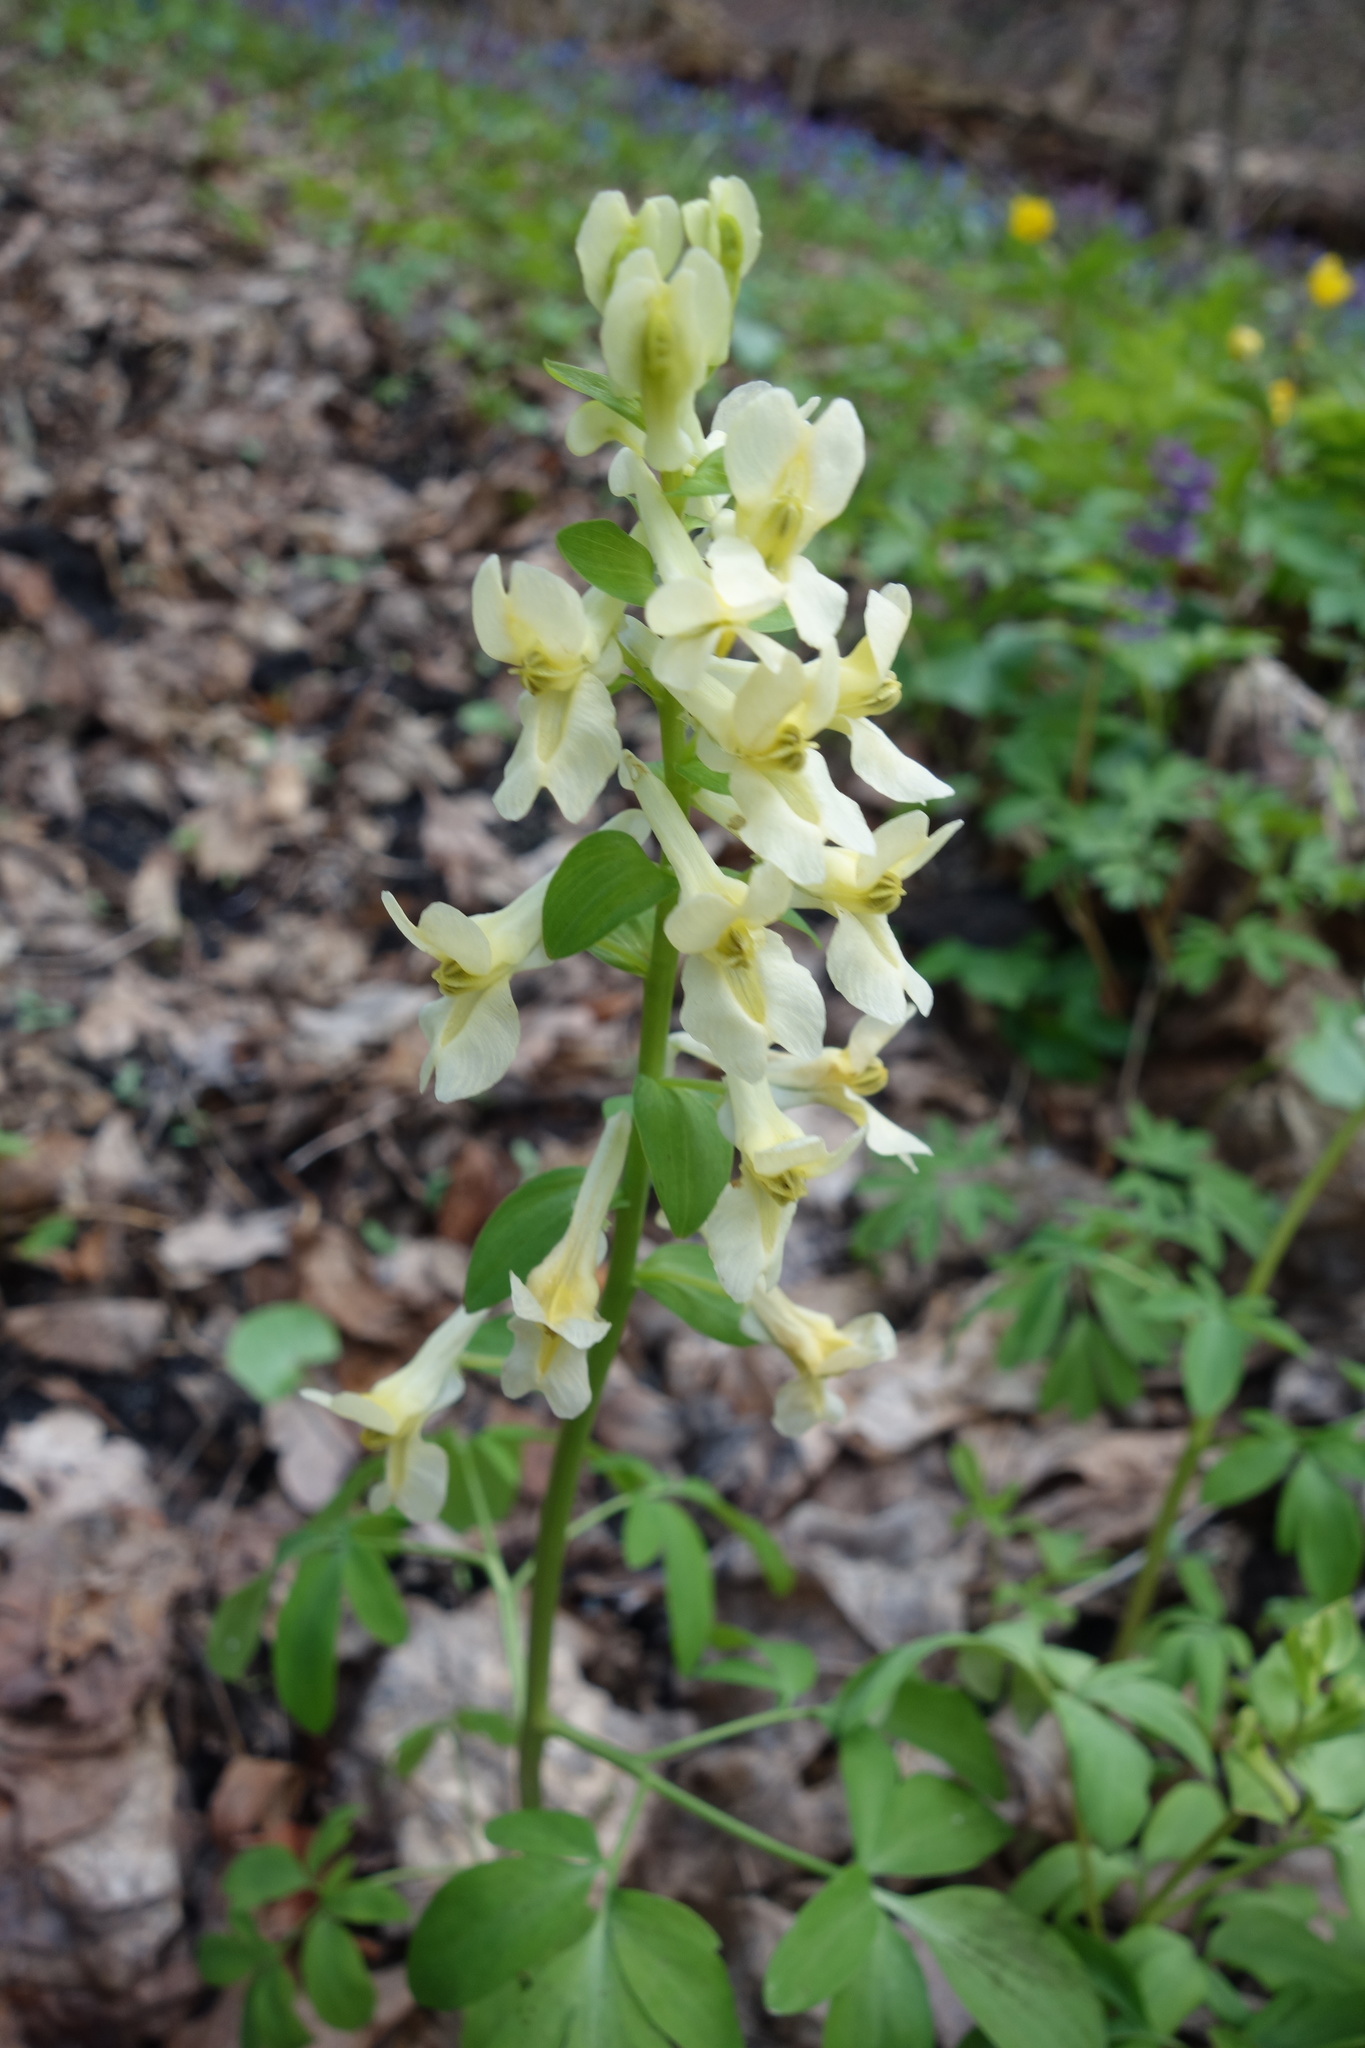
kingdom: Plantae
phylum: Tracheophyta
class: Magnoliopsida
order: Ranunculales
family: Papaveraceae
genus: Corydalis
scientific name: Corydalis cava
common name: Hollowroot
